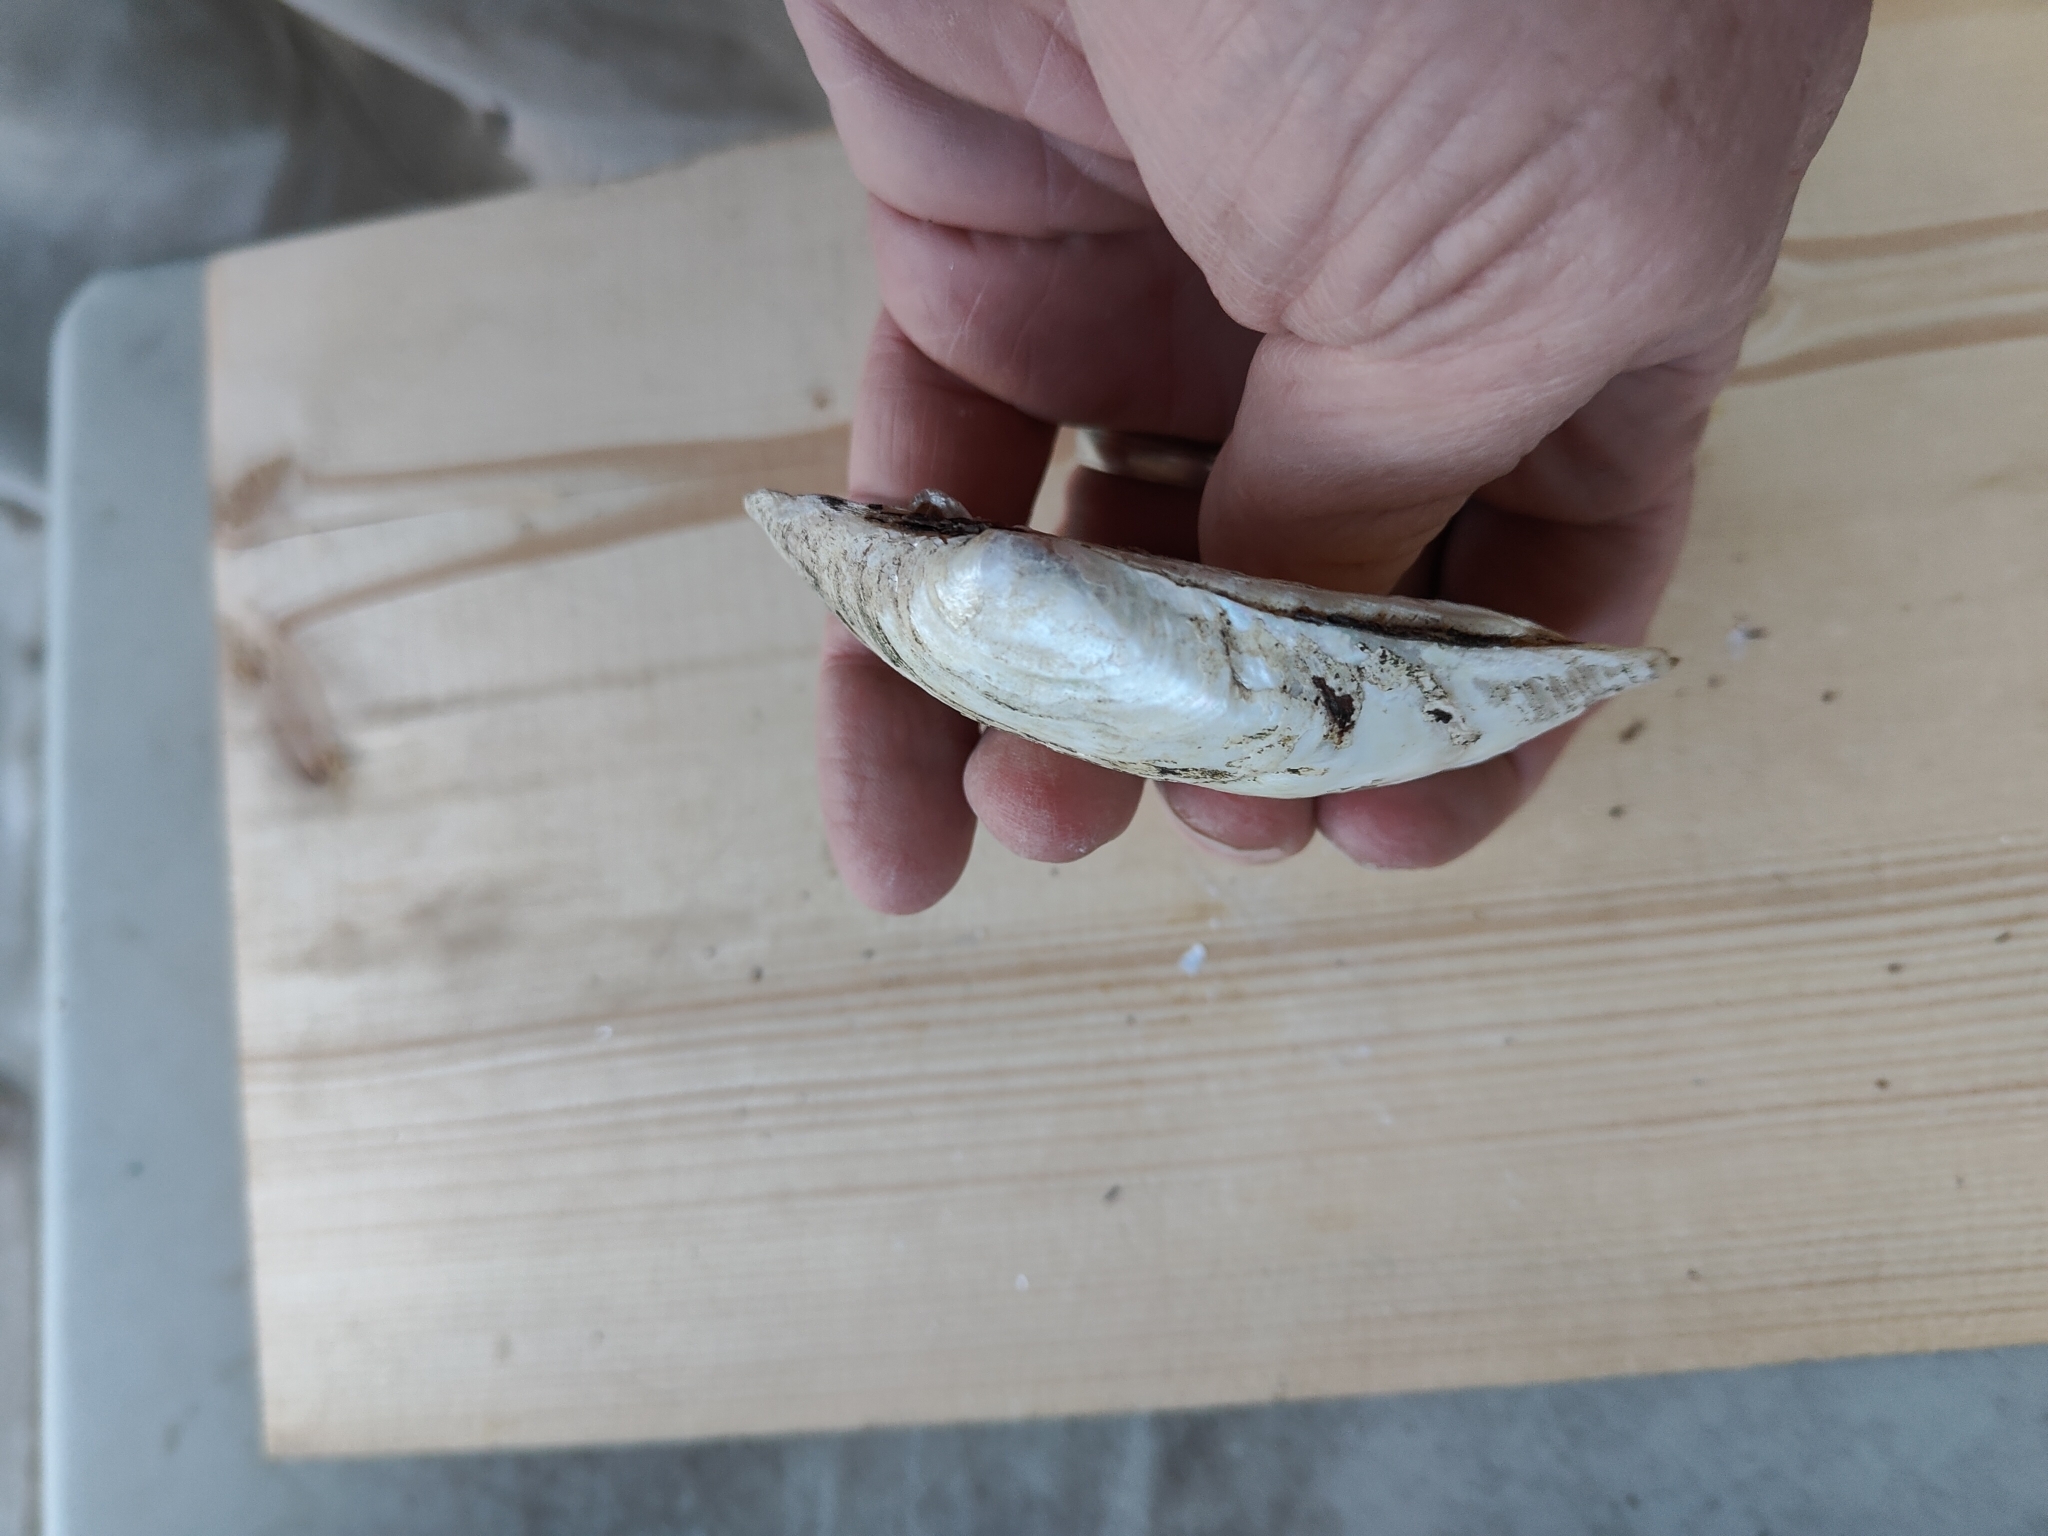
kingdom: Animalia
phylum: Mollusca
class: Bivalvia
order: Unionida
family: Unionidae
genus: Lampsilis
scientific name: Lampsilis siliquoidea
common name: Fatmucket
